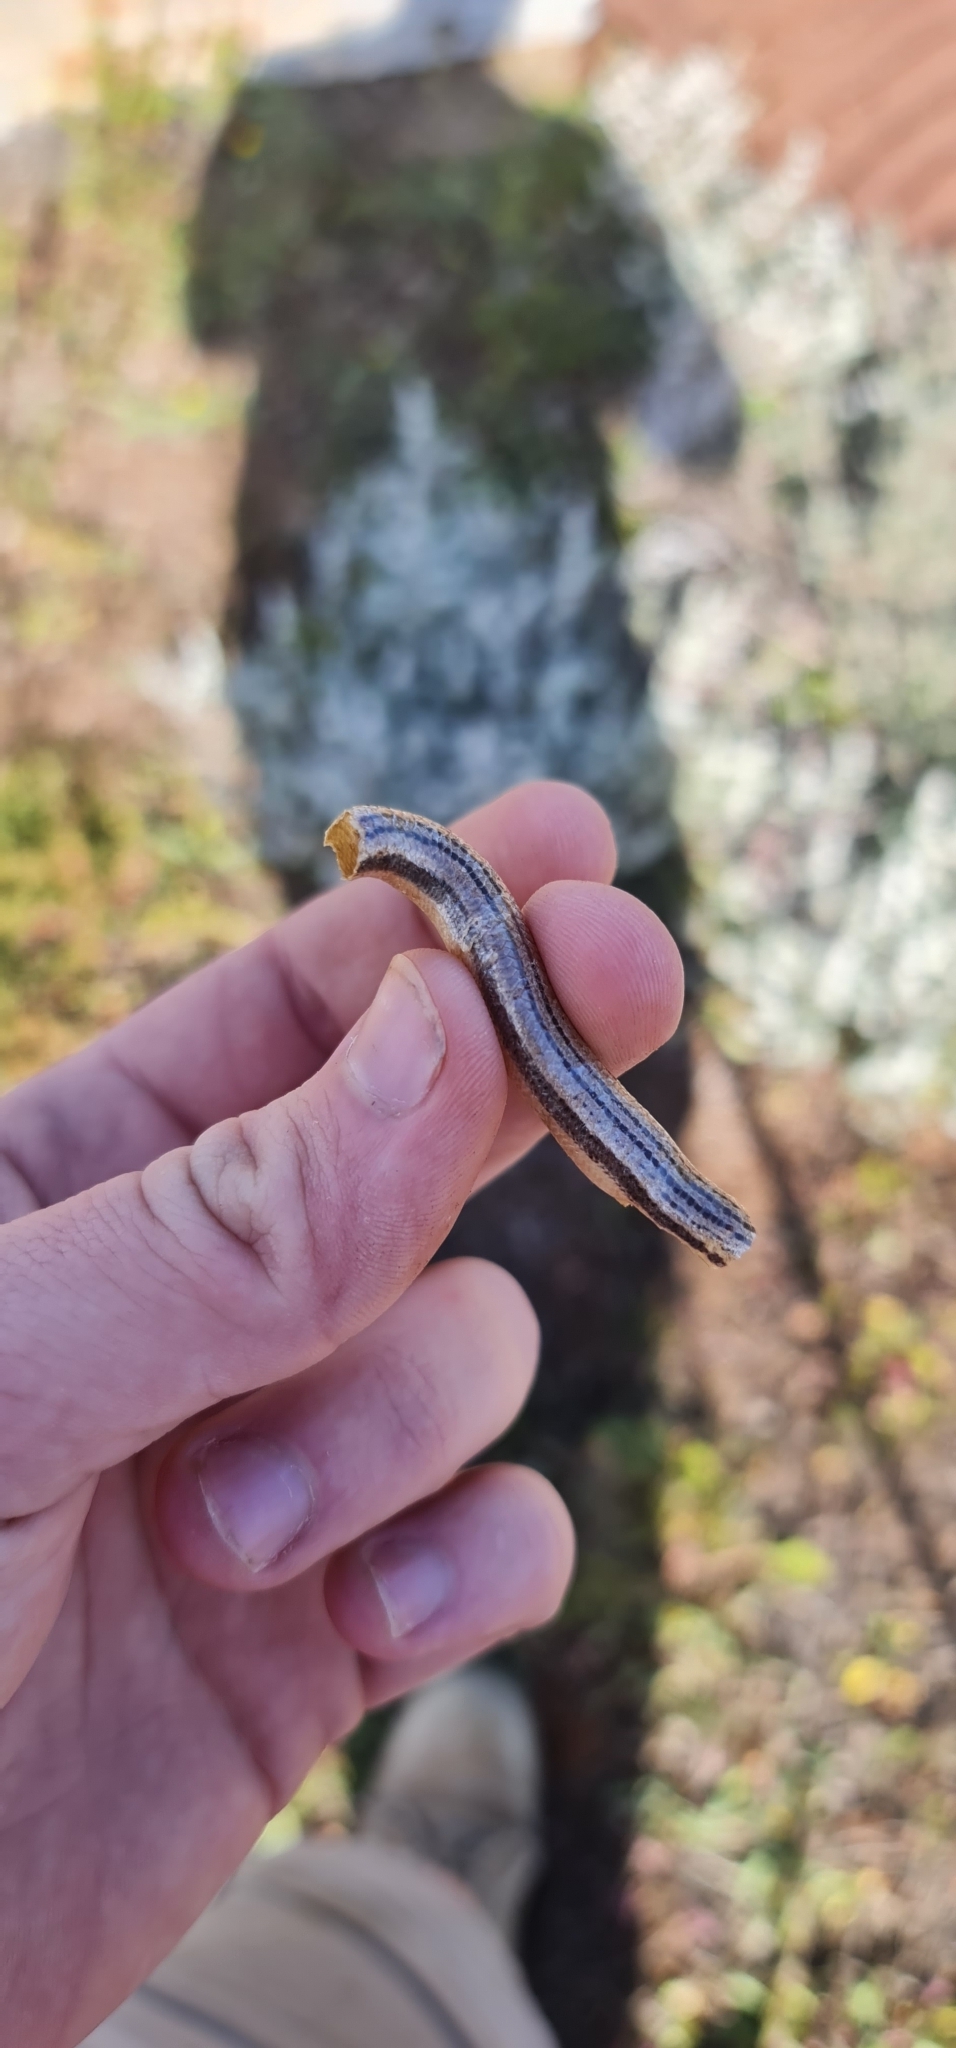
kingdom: Animalia
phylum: Chordata
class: Squamata
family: Scincidae
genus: Lerista
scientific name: Lerista edwardsae
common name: Myall slider
